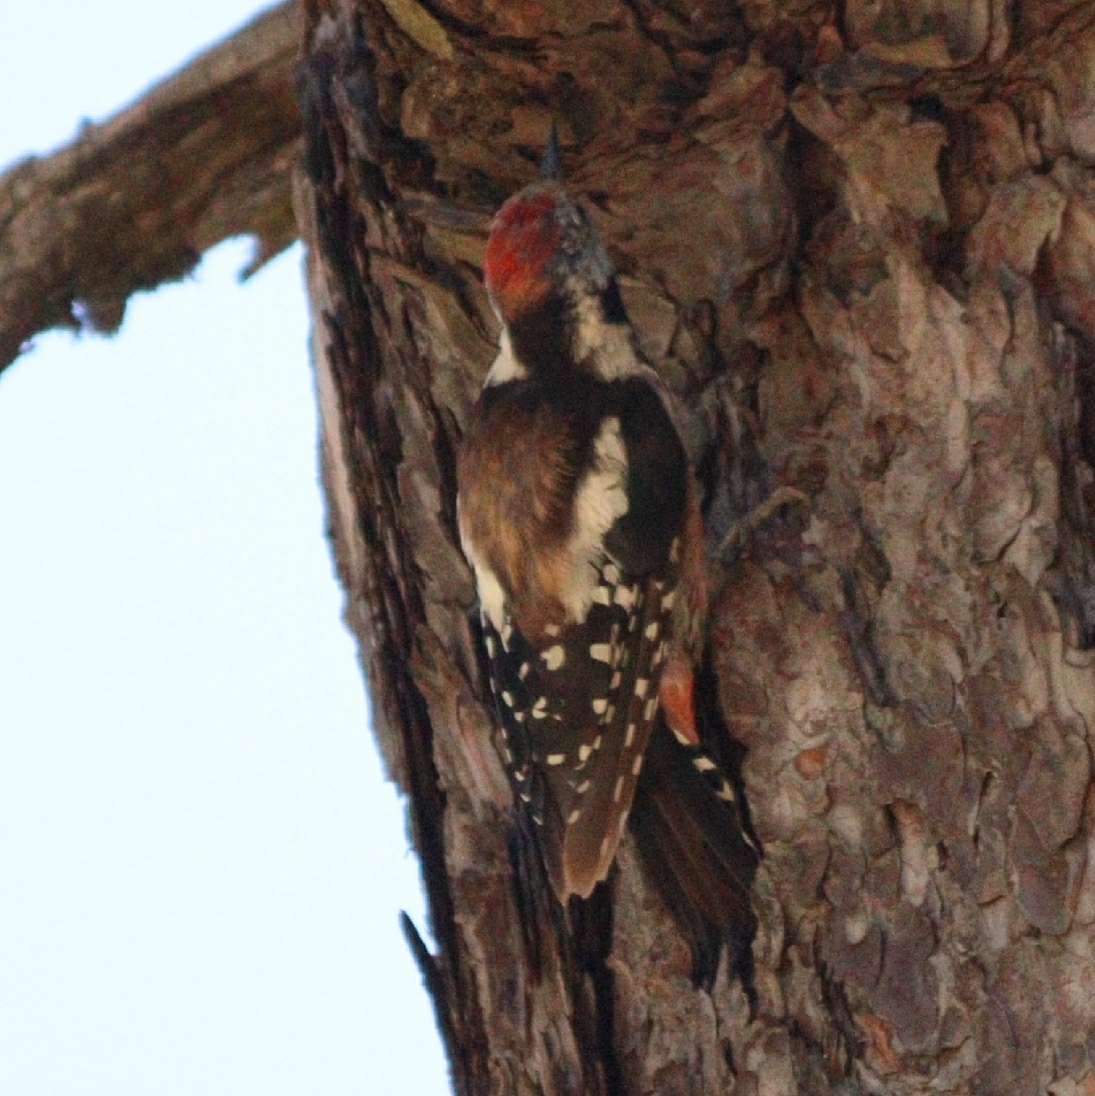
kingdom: Animalia
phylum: Chordata
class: Aves
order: Piciformes
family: Picidae
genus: Dendrocoptes
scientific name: Dendrocoptes medius
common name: Middle spotted woodpecker
